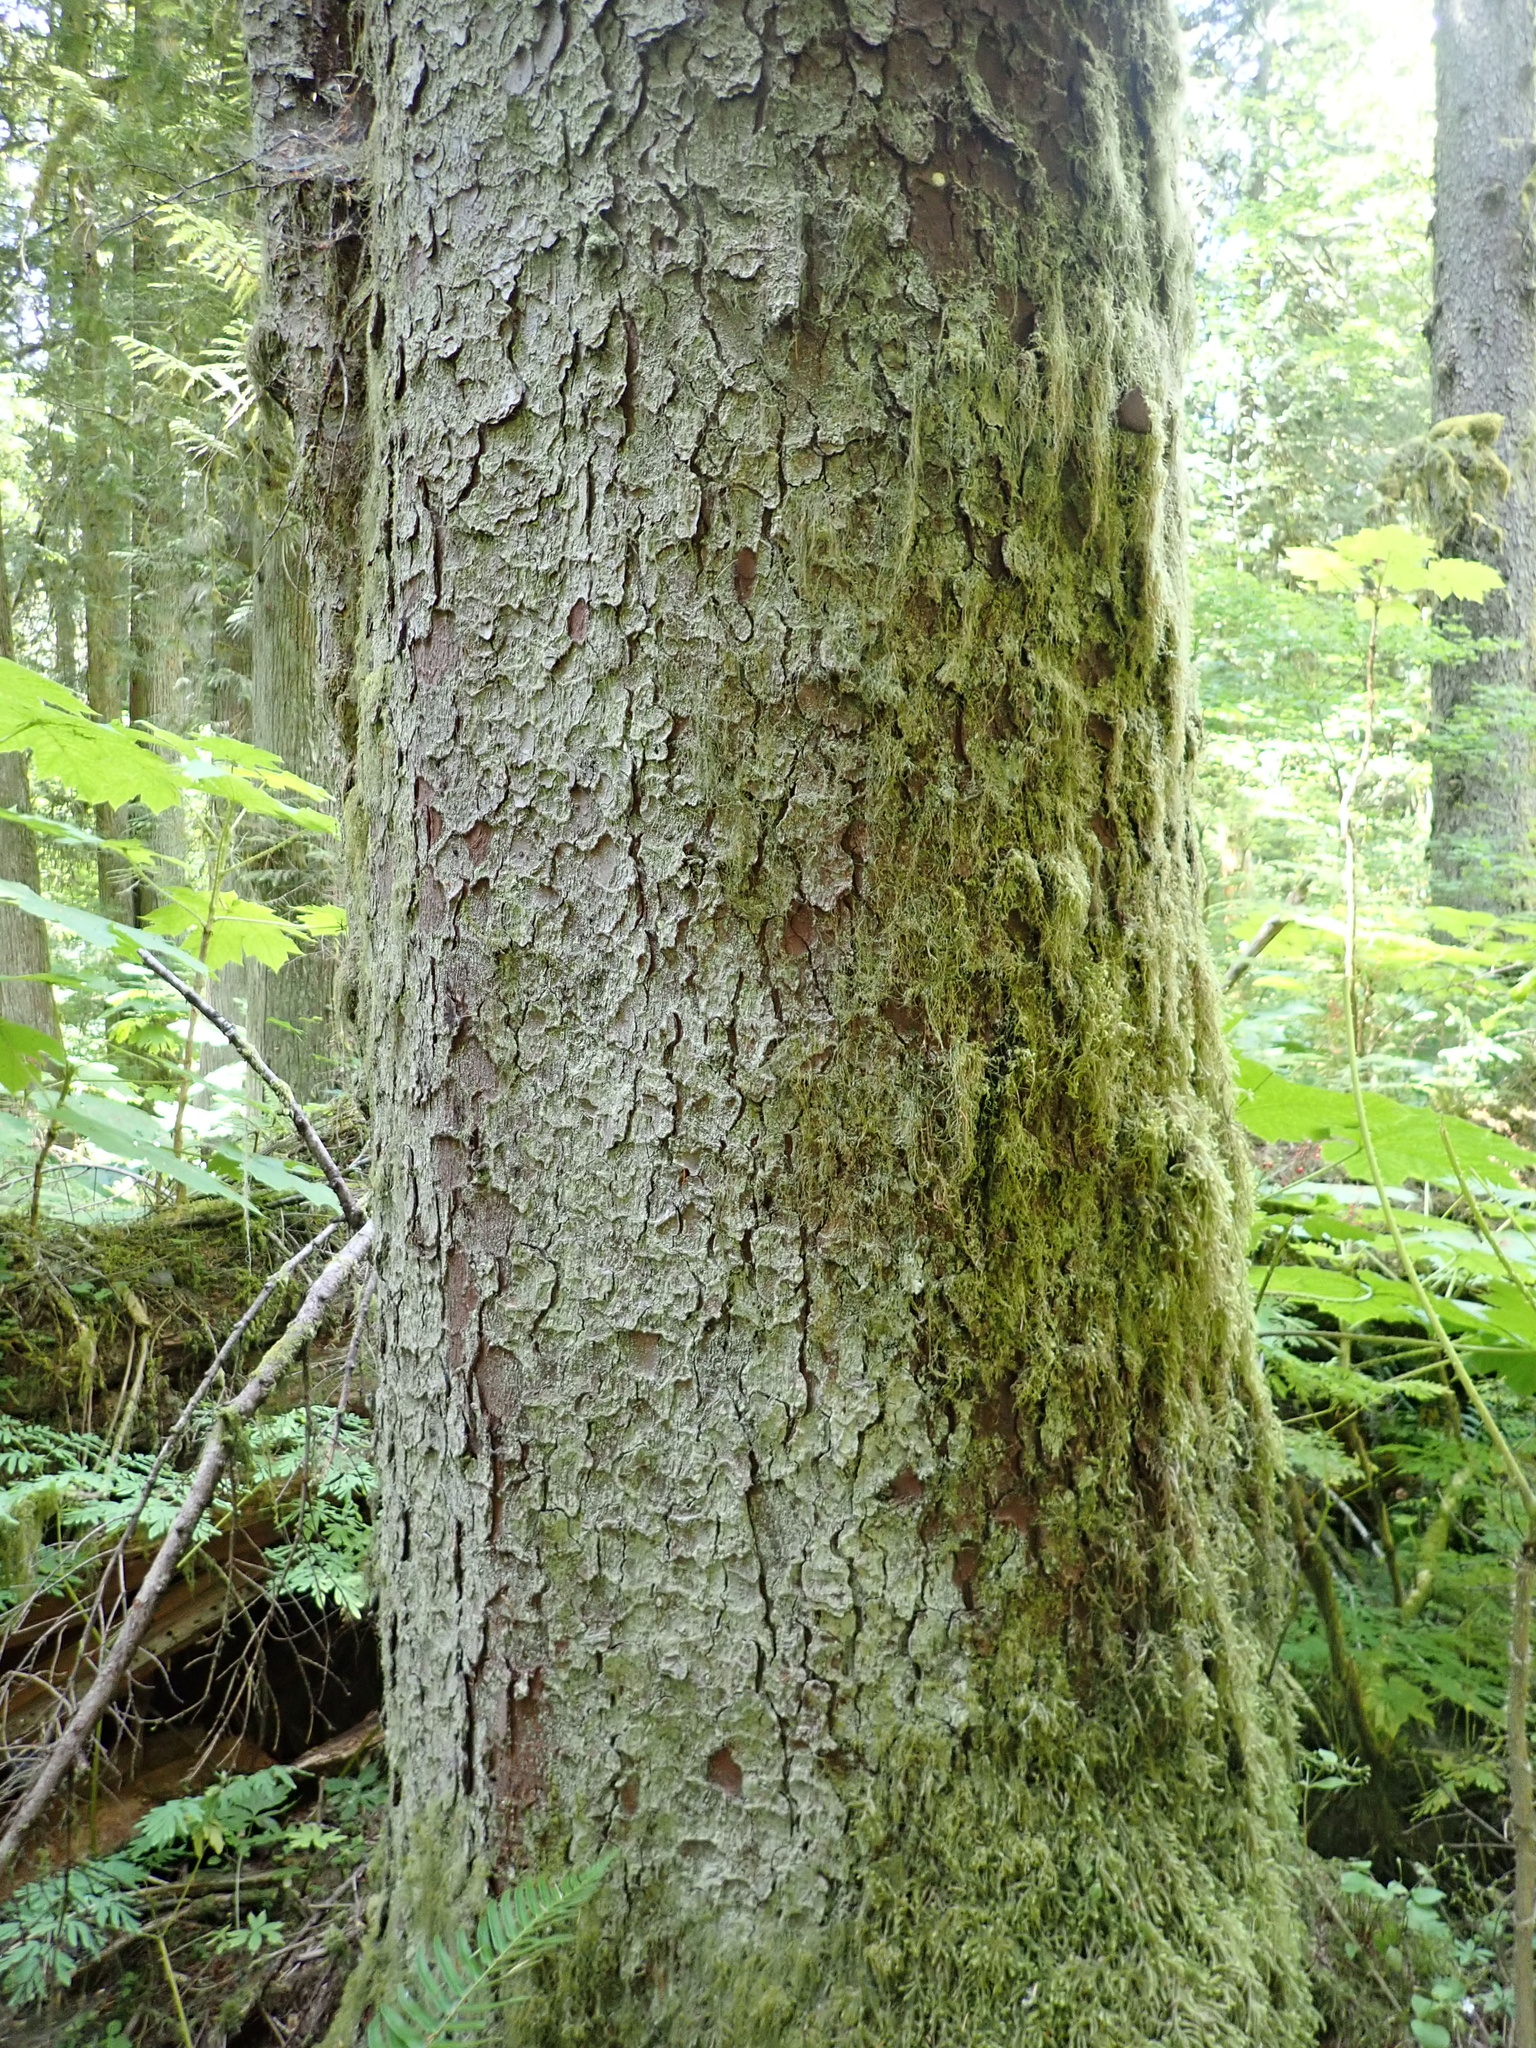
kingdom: Plantae
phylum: Tracheophyta
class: Pinopsida
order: Pinales
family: Pinaceae
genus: Picea
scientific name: Picea sitchensis
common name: Sitka spruce
